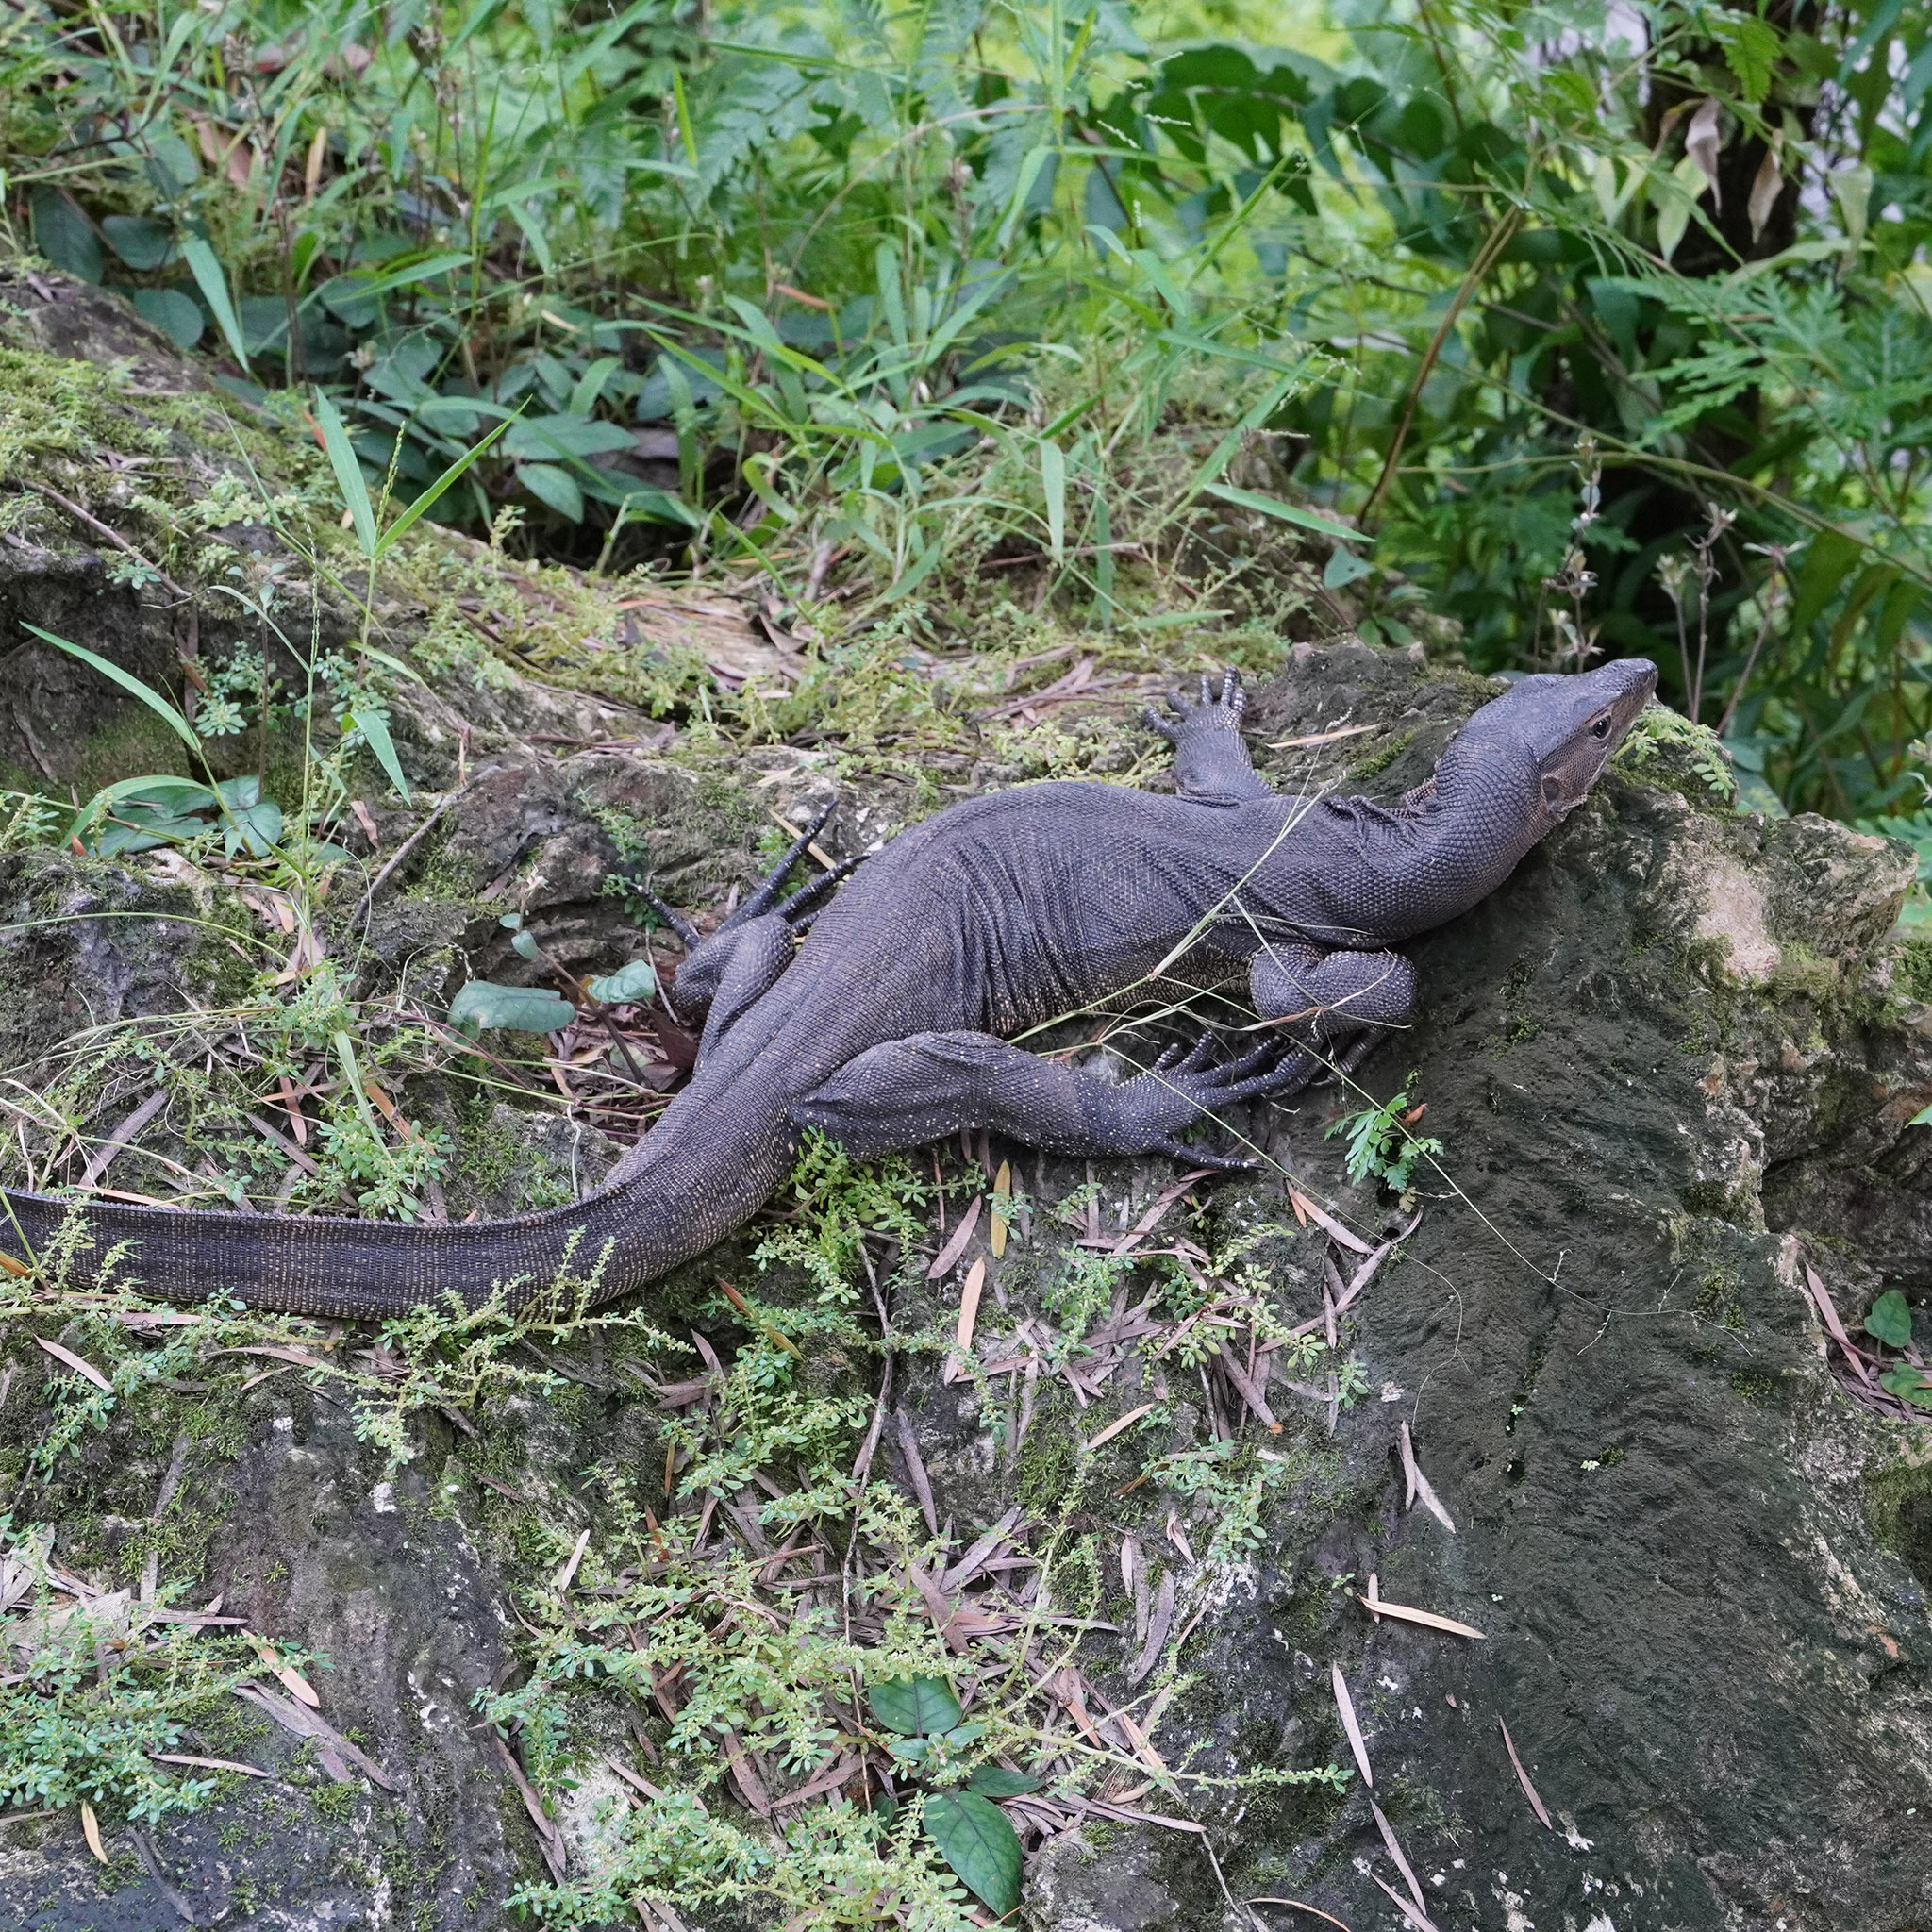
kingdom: Animalia
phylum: Chordata
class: Squamata
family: Varanidae
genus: Varanus
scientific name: Varanus salvator
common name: Common water monitor
